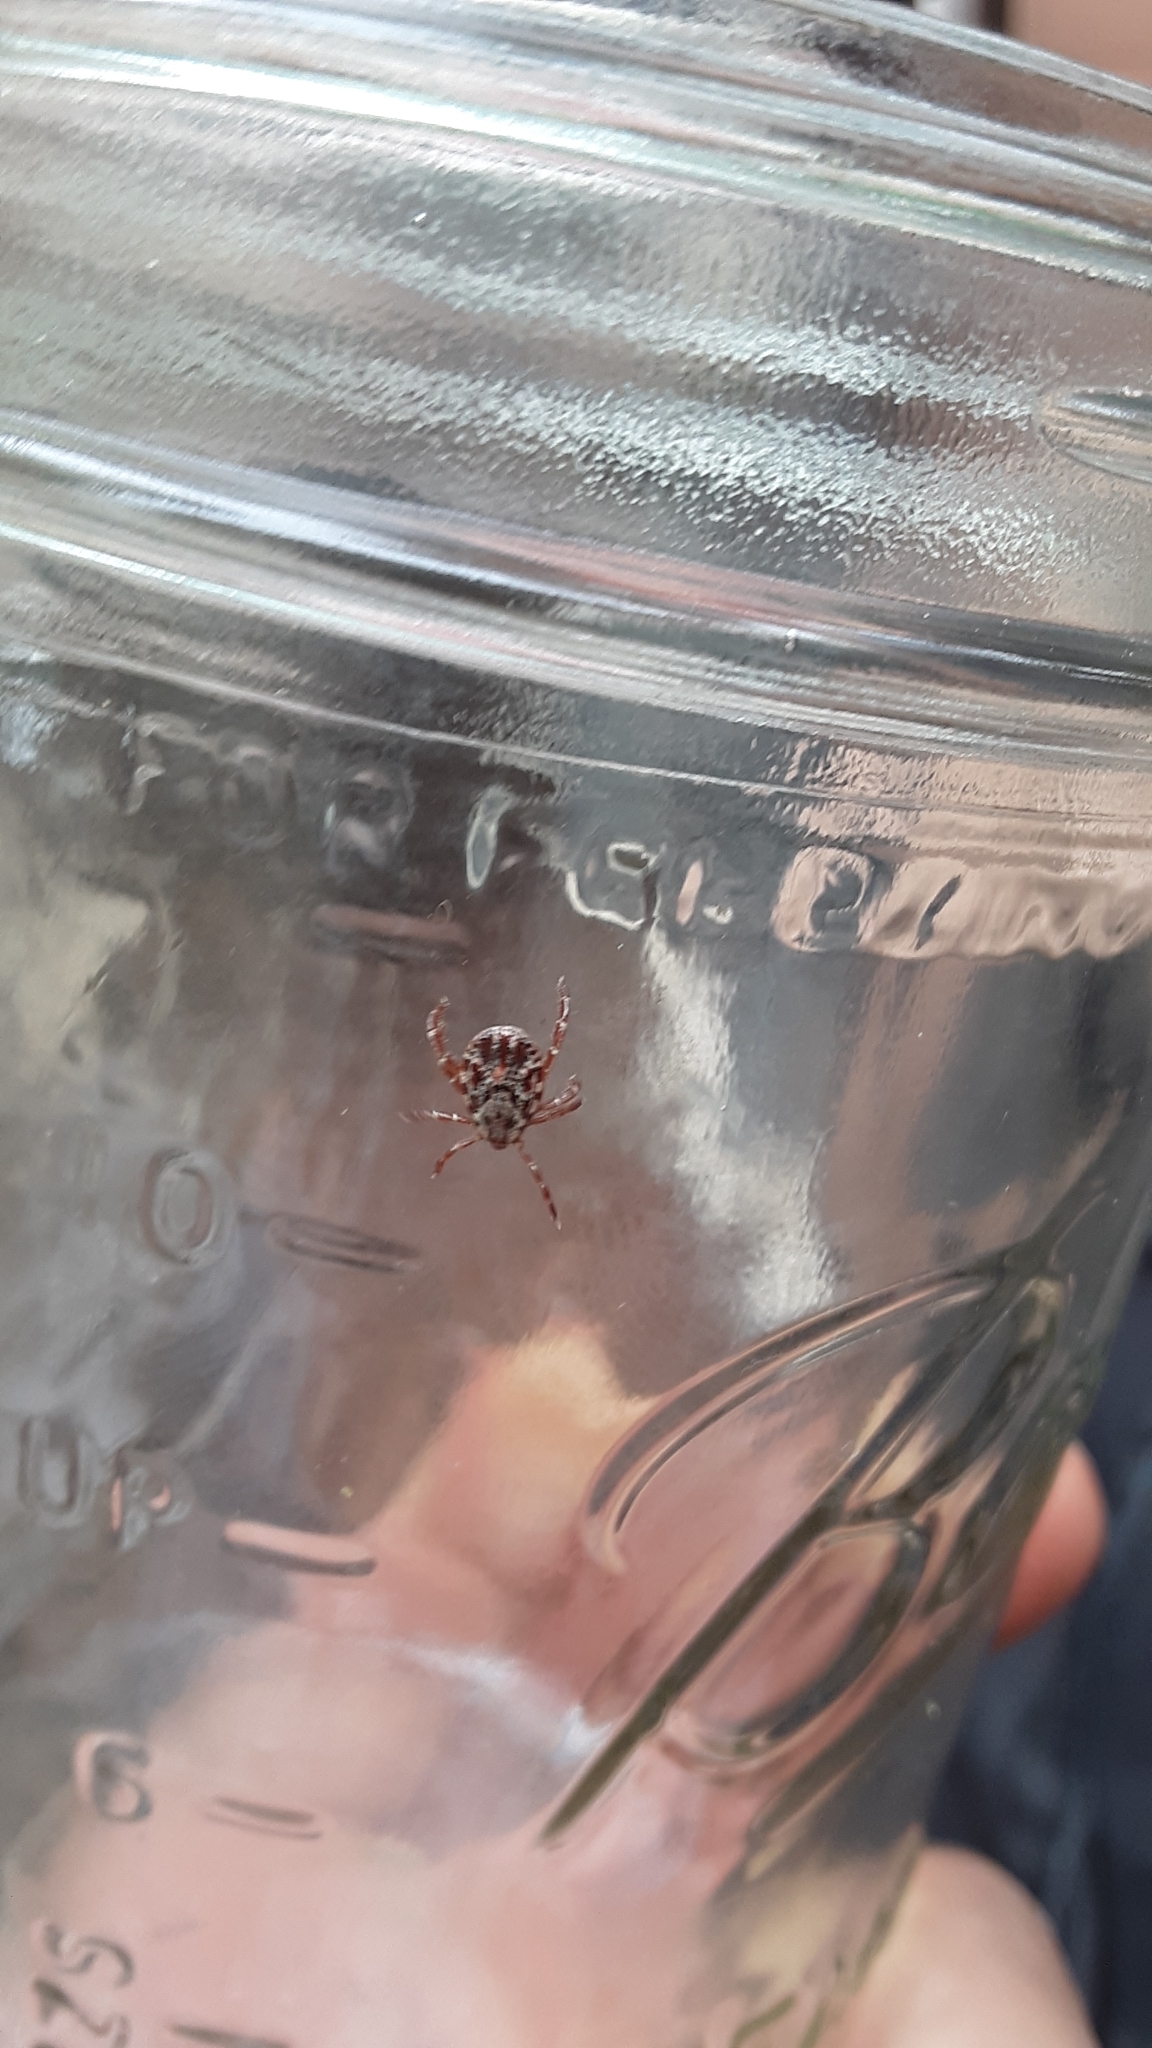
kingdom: Animalia
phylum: Arthropoda
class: Arachnida
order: Ixodida
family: Ixodidae
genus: Dermacentor
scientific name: Dermacentor andersoni
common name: Rocky mountain wood tick
